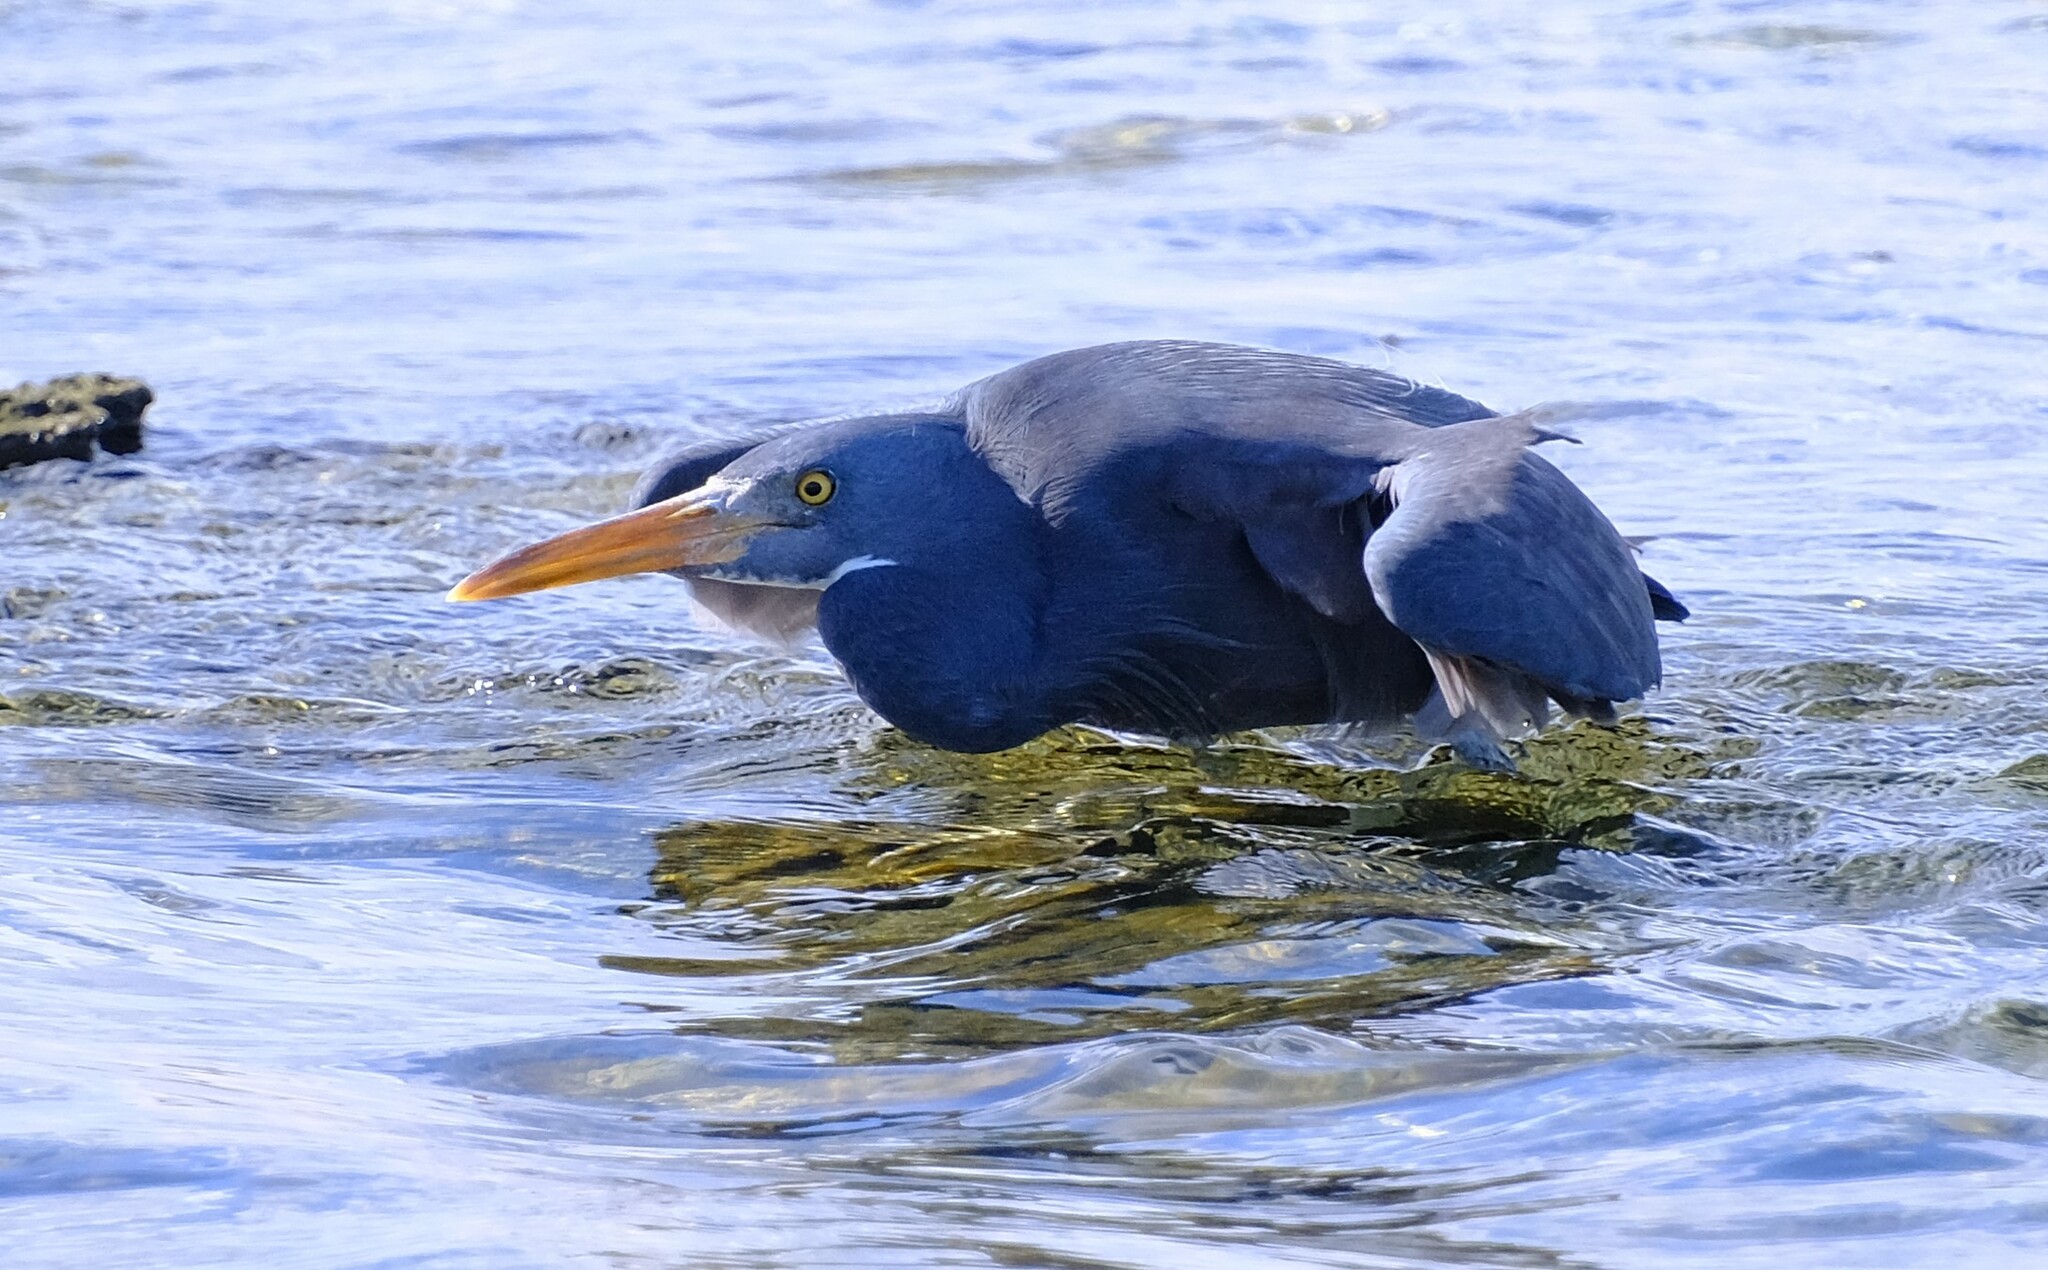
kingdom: Animalia
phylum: Chordata
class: Aves
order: Pelecaniformes
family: Ardeidae
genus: Egretta
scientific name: Egretta sacra
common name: Pacific reef heron
